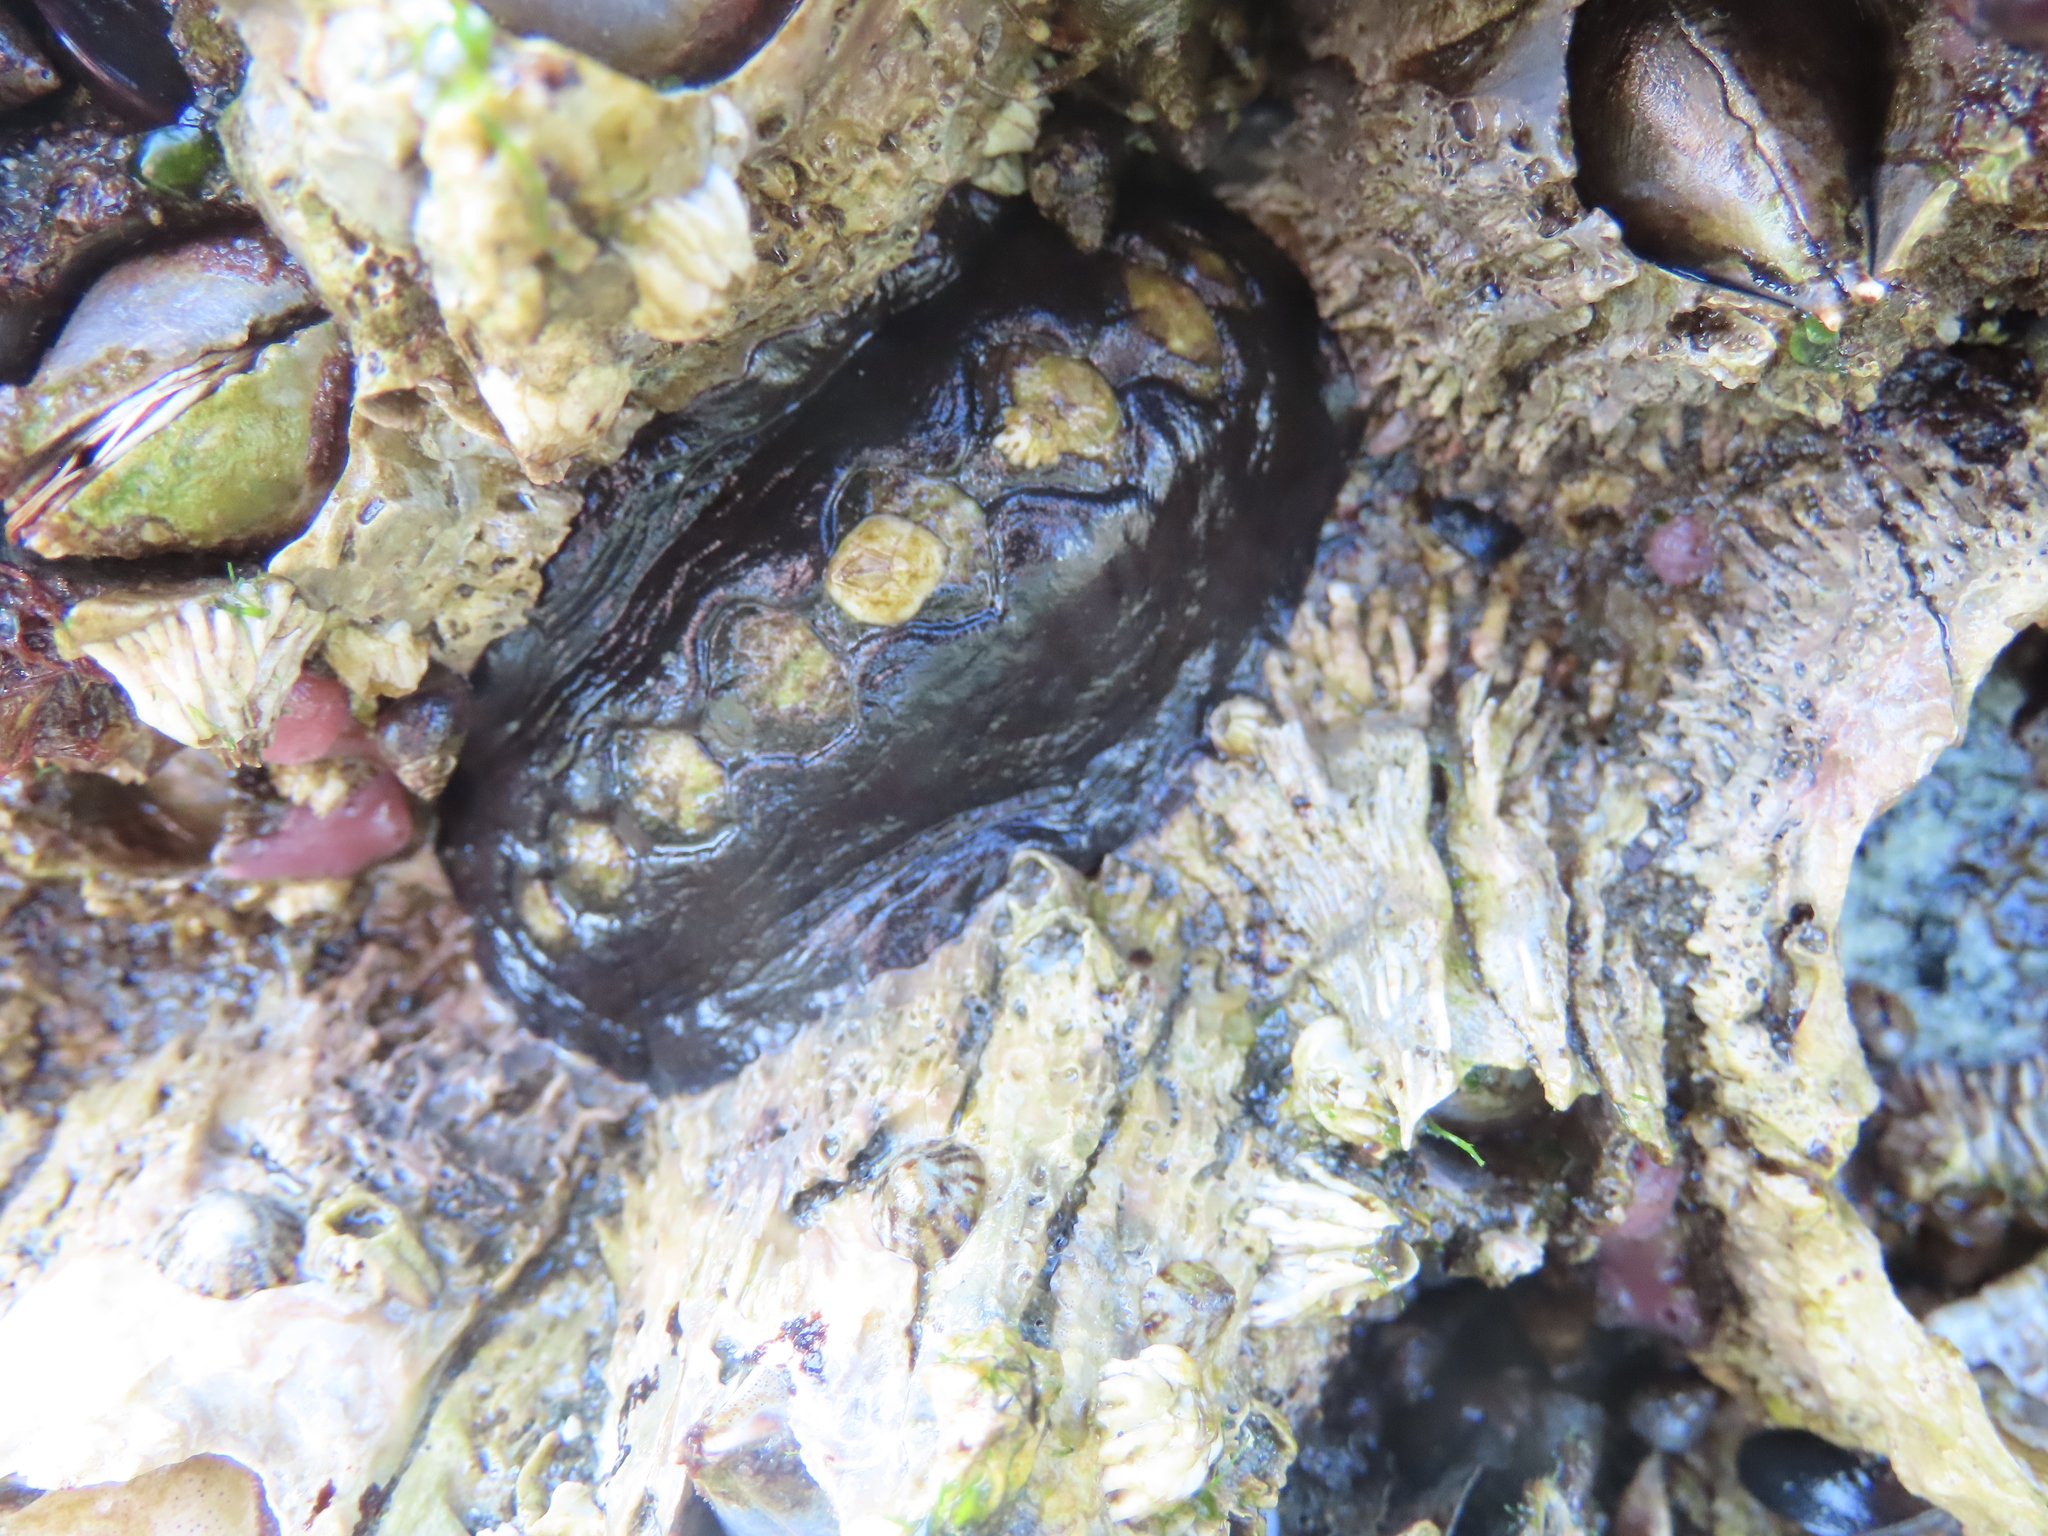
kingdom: Animalia
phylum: Mollusca
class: Polyplacophora
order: Chitonida
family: Mopaliidae
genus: Katharina
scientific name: Katharina tunicata
